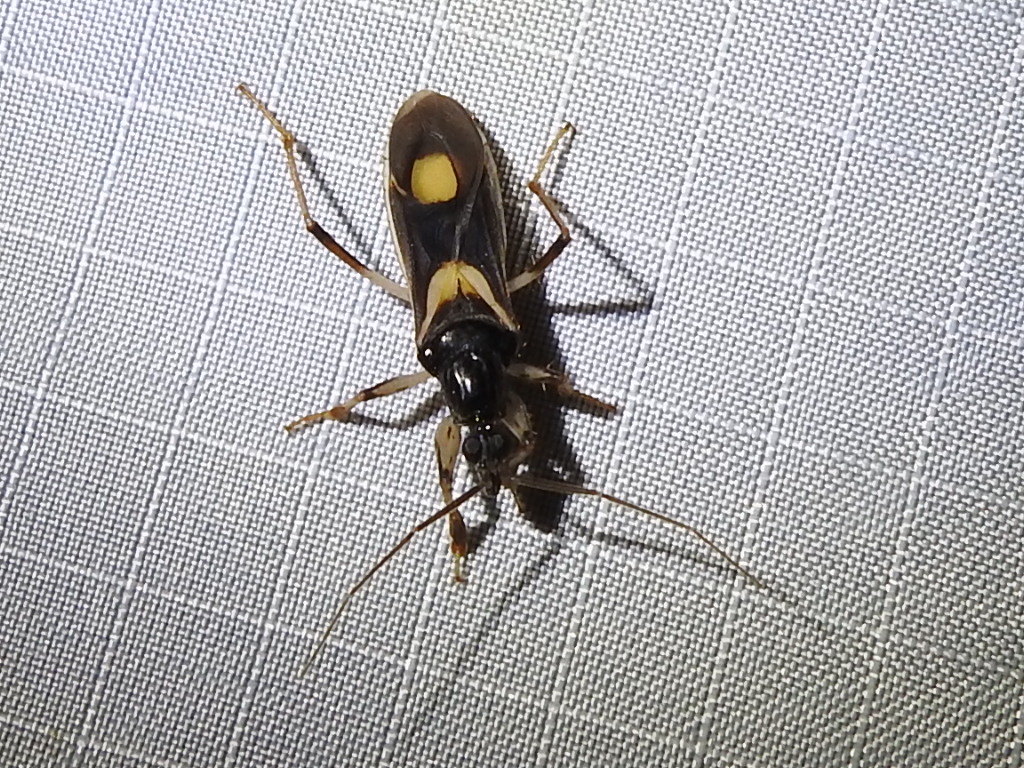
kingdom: Animalia
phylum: Arthropoda
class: Insecta
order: Hemiptera
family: Reduviidae
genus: Rasahus
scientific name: Rasahus hamatus
